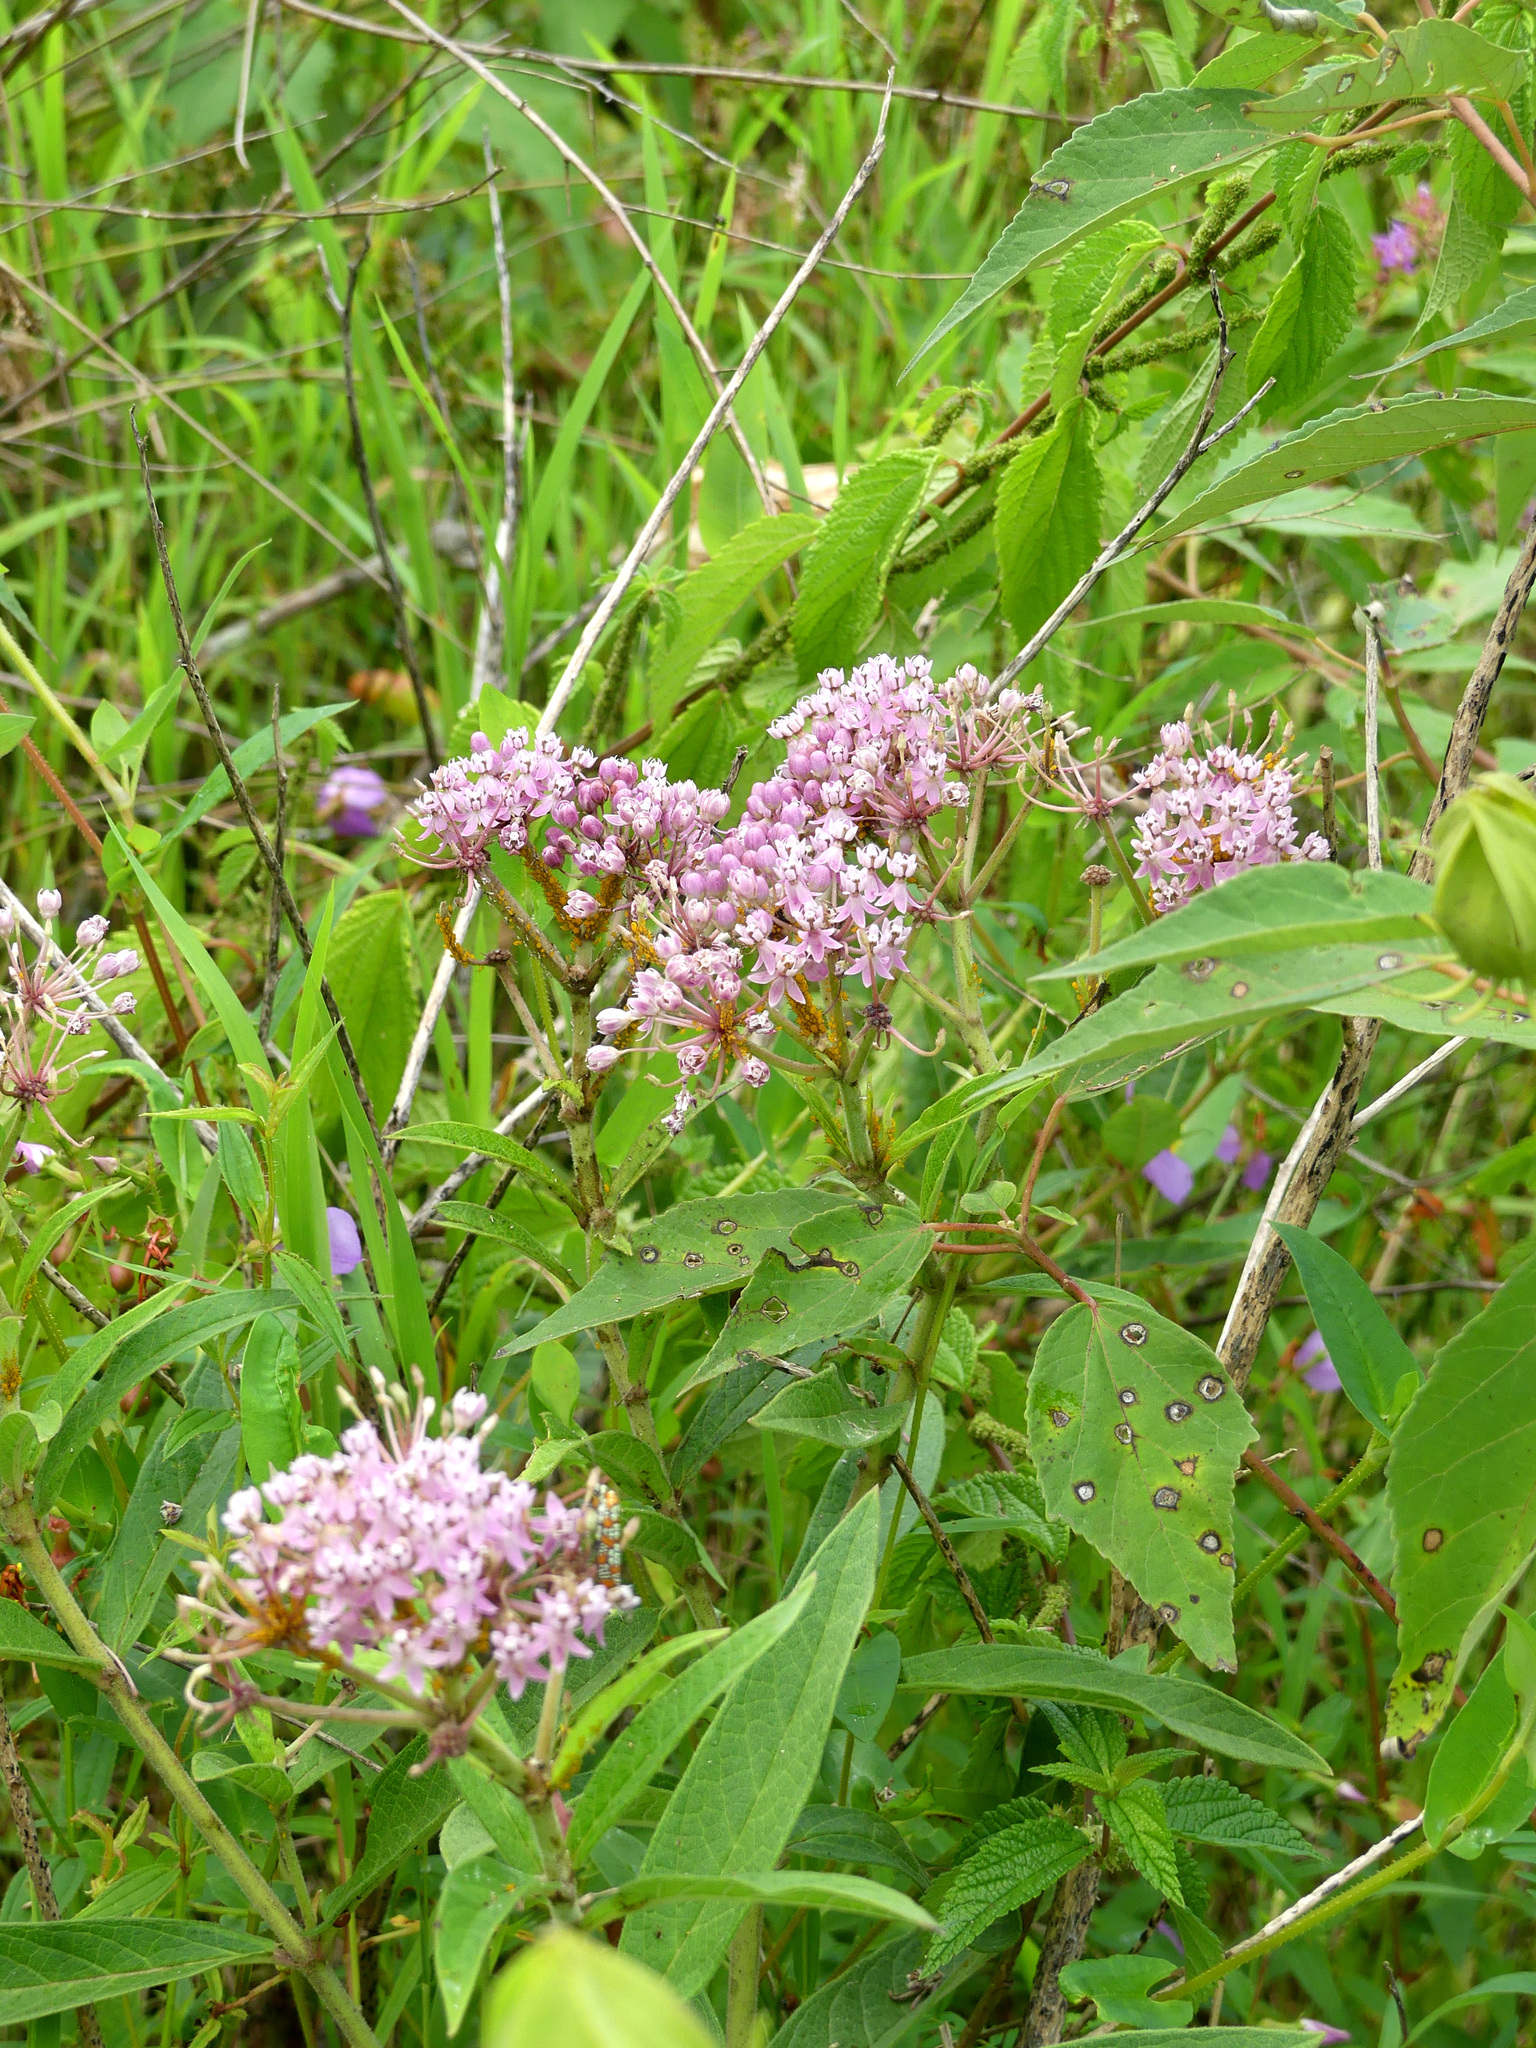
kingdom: Plantae
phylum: Tracheophyta
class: Magnoliopsida
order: Gentianales
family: Apocynaceae
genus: Asclepias
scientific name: Asclepias incarnata
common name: Swamp milkweed
